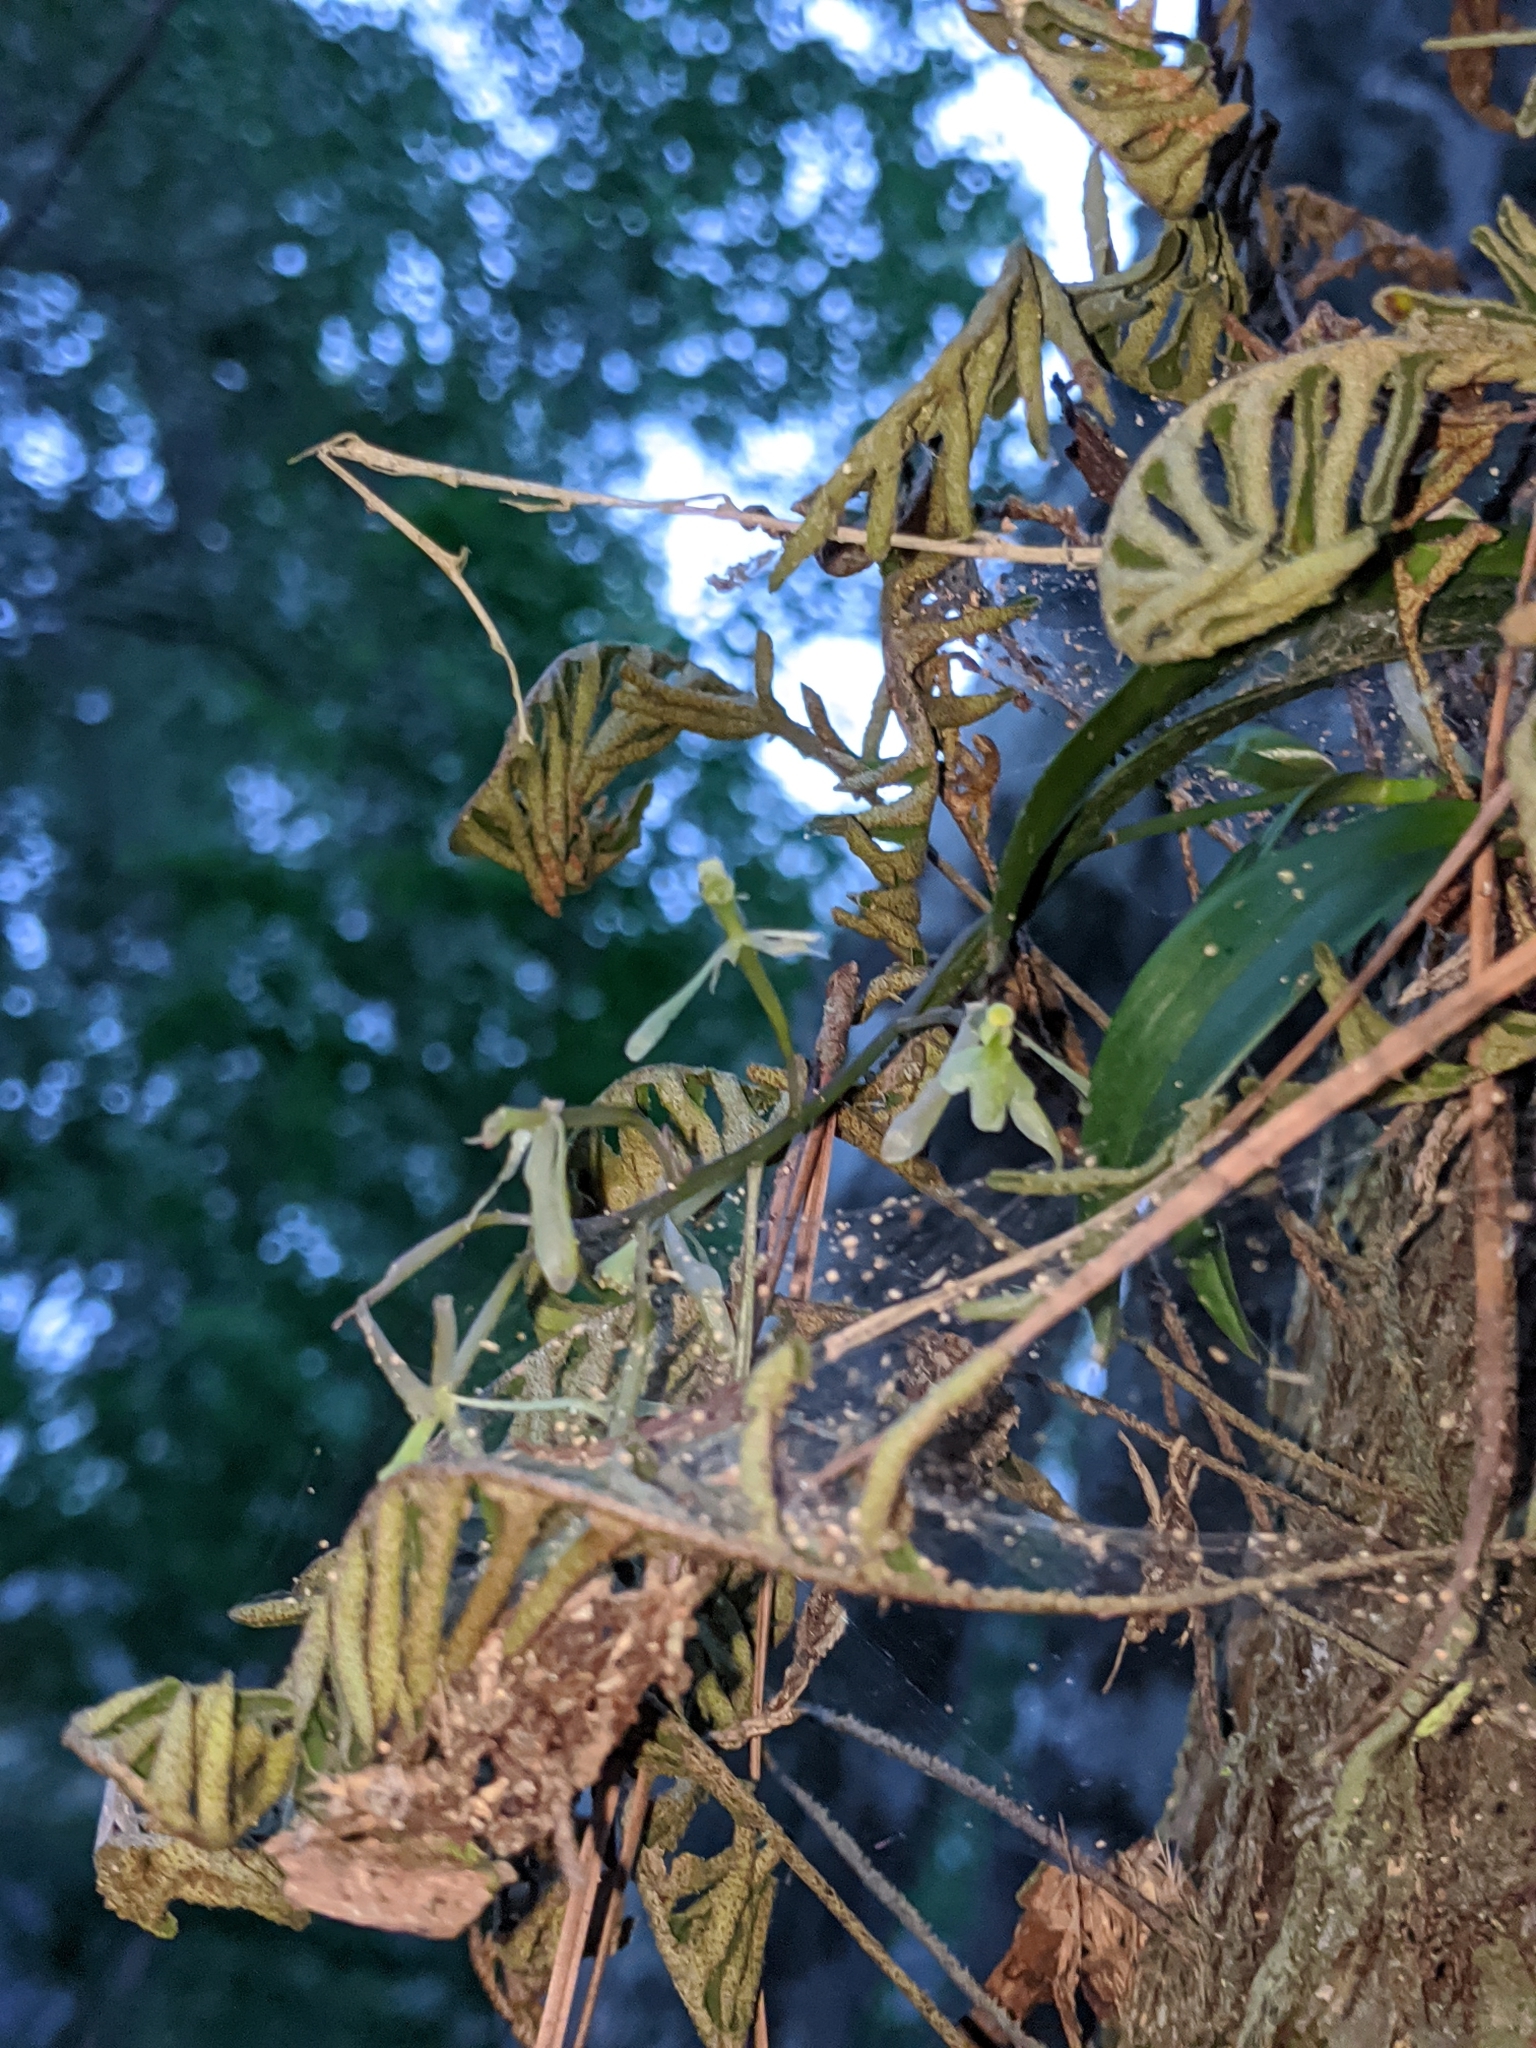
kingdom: Plantae
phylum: Tracheophyta
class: Liliopsida
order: Asparagales
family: Orchidaceae
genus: Epidendrum
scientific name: Epidendrum conopseum
